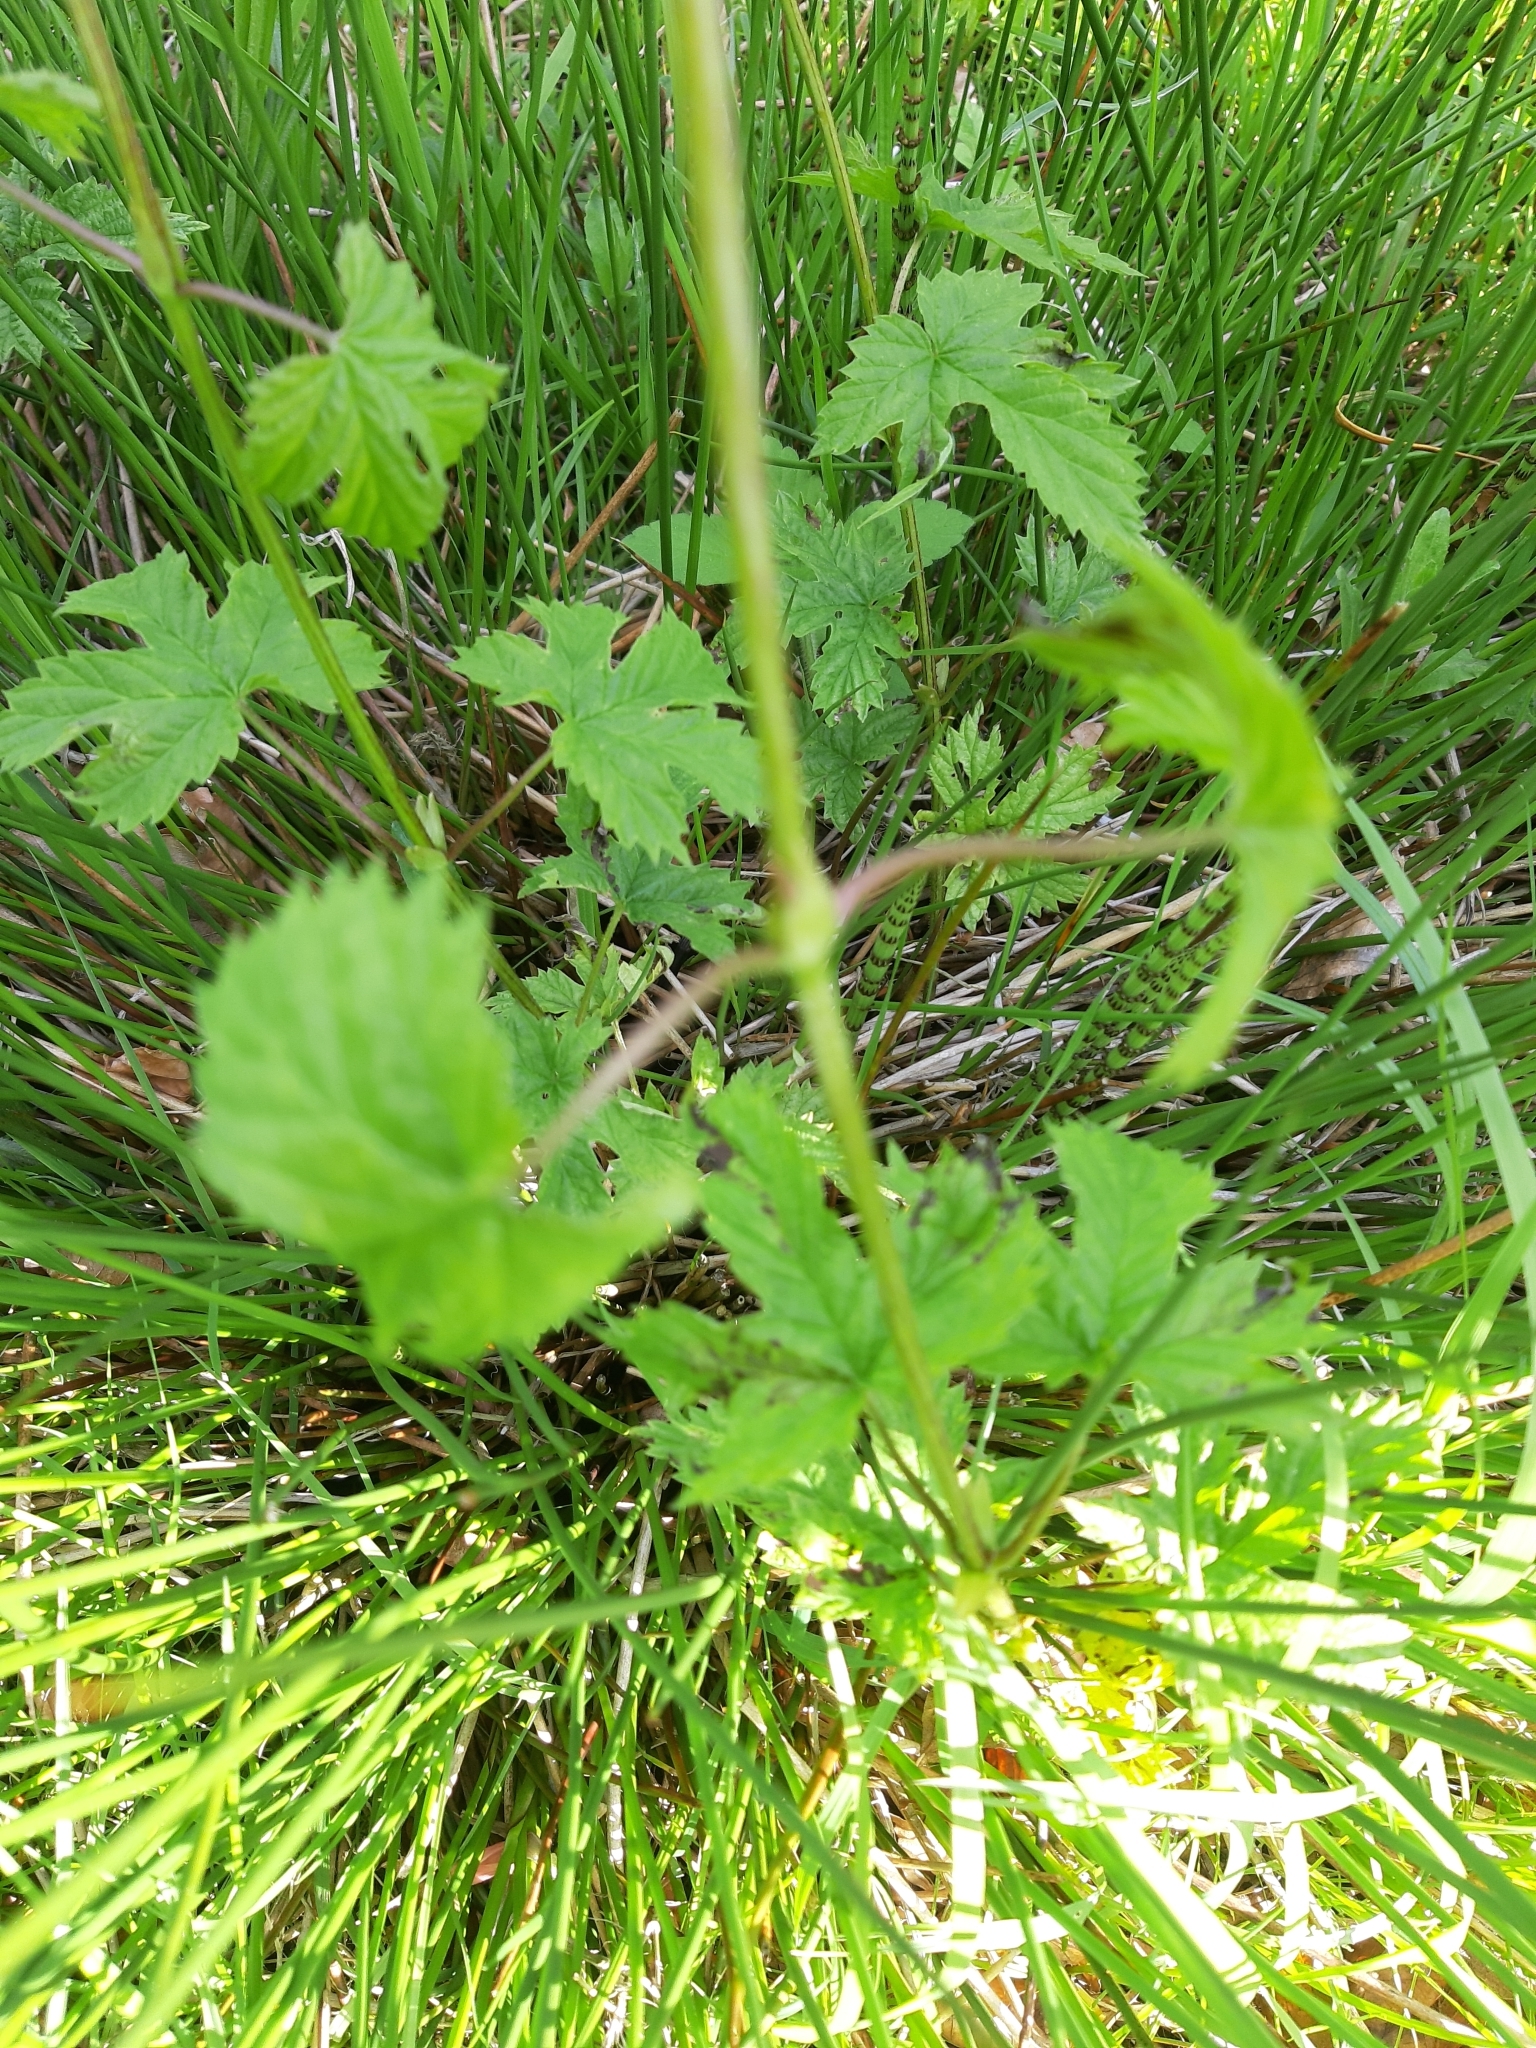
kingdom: Plantae
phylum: Tracheophyta
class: Magnoliopsida
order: Rosales
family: Cannabaceae
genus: Humulus
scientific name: Humulus lupulus
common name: Hop
